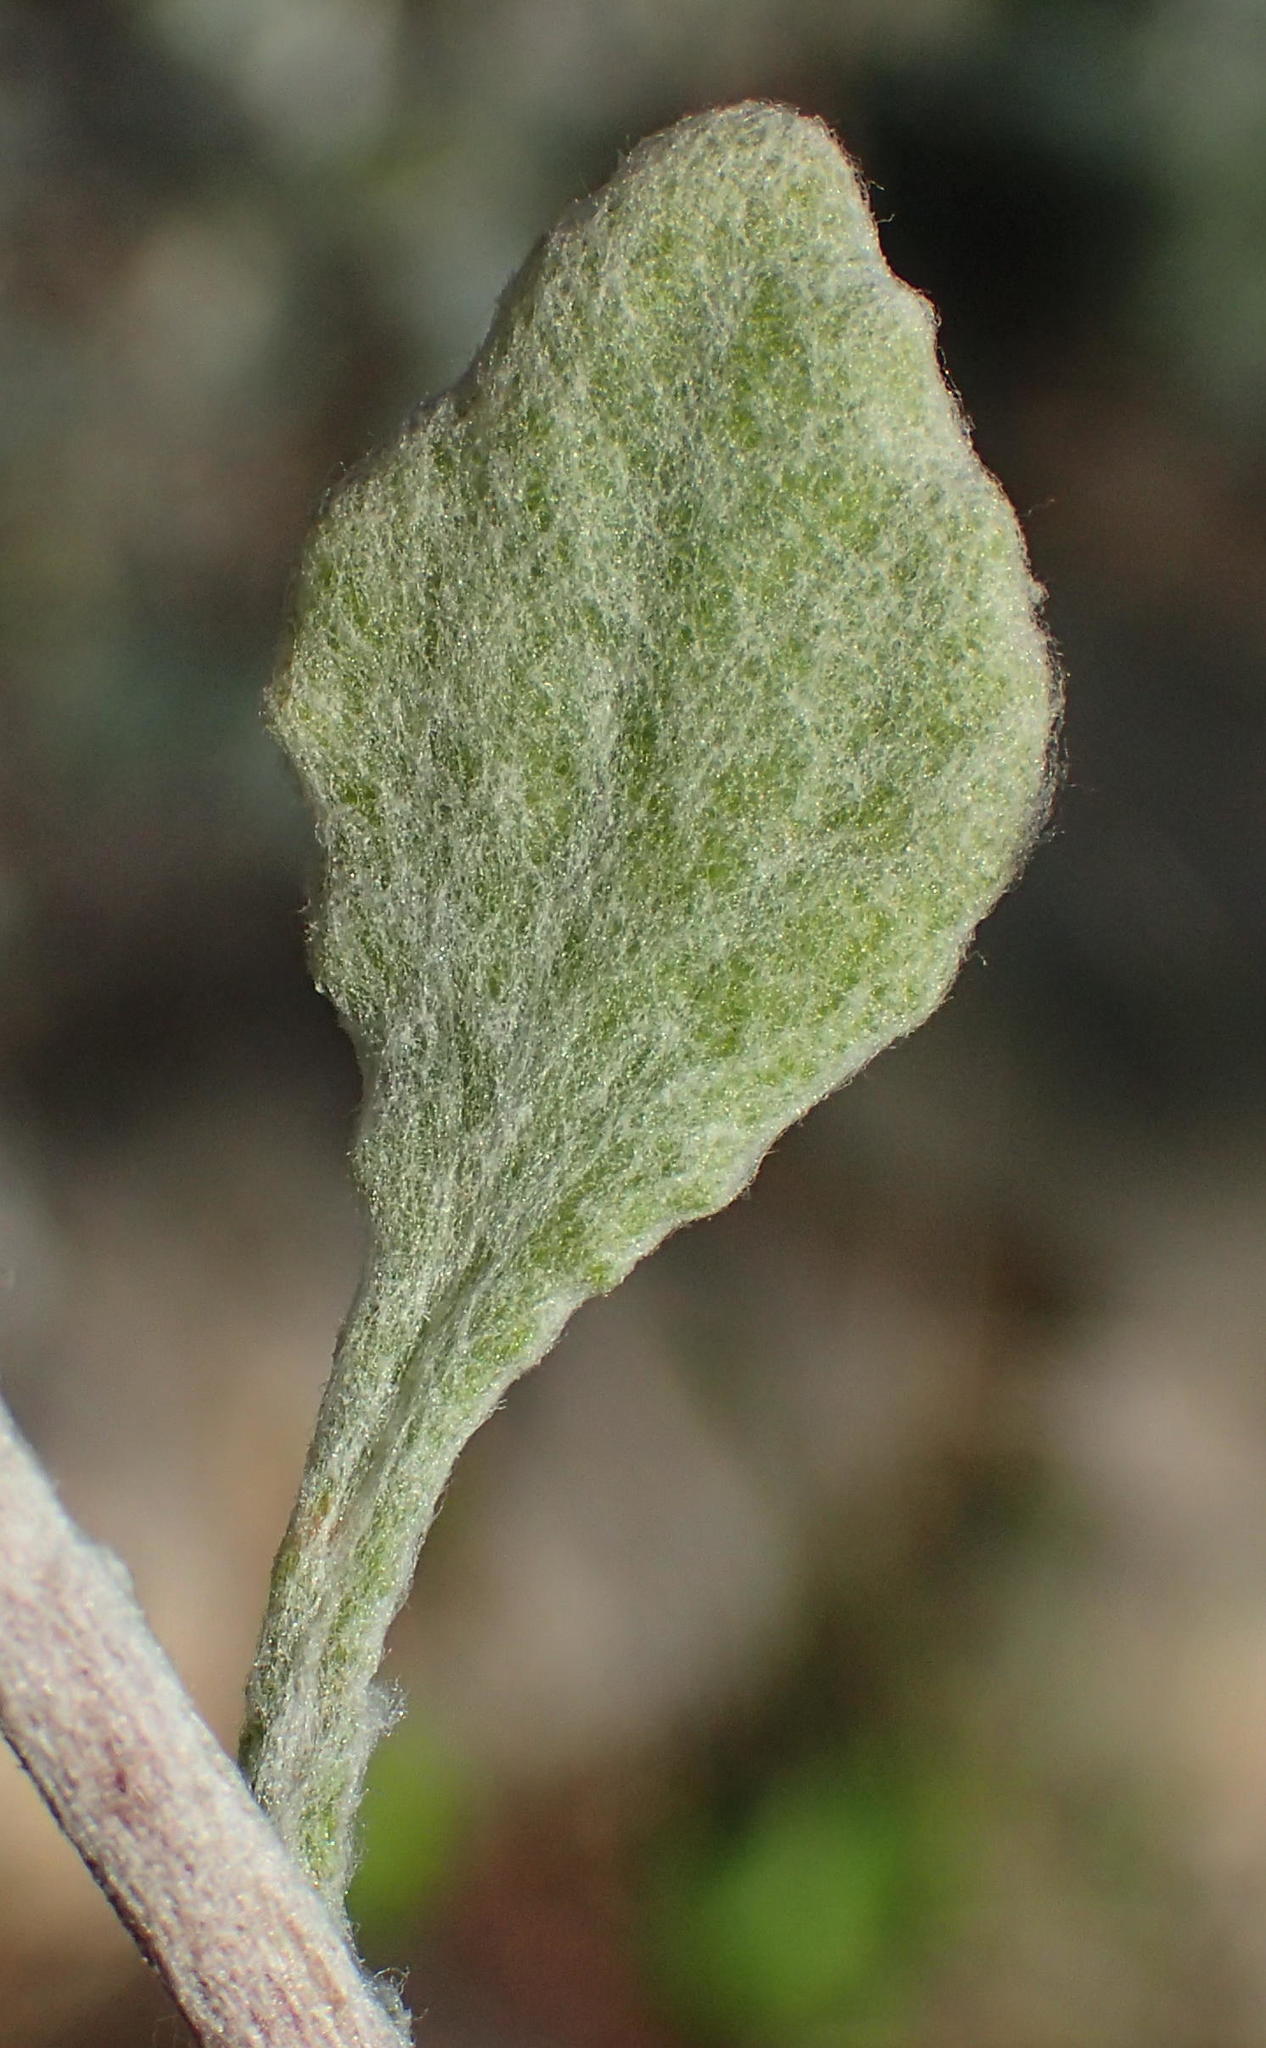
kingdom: Plantae
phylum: Tracheophyta
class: Magnoliopsida
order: Asterales
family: Asteraceae
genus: Helichrysum
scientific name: Helichrysum petiolare
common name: Licorice-plant
